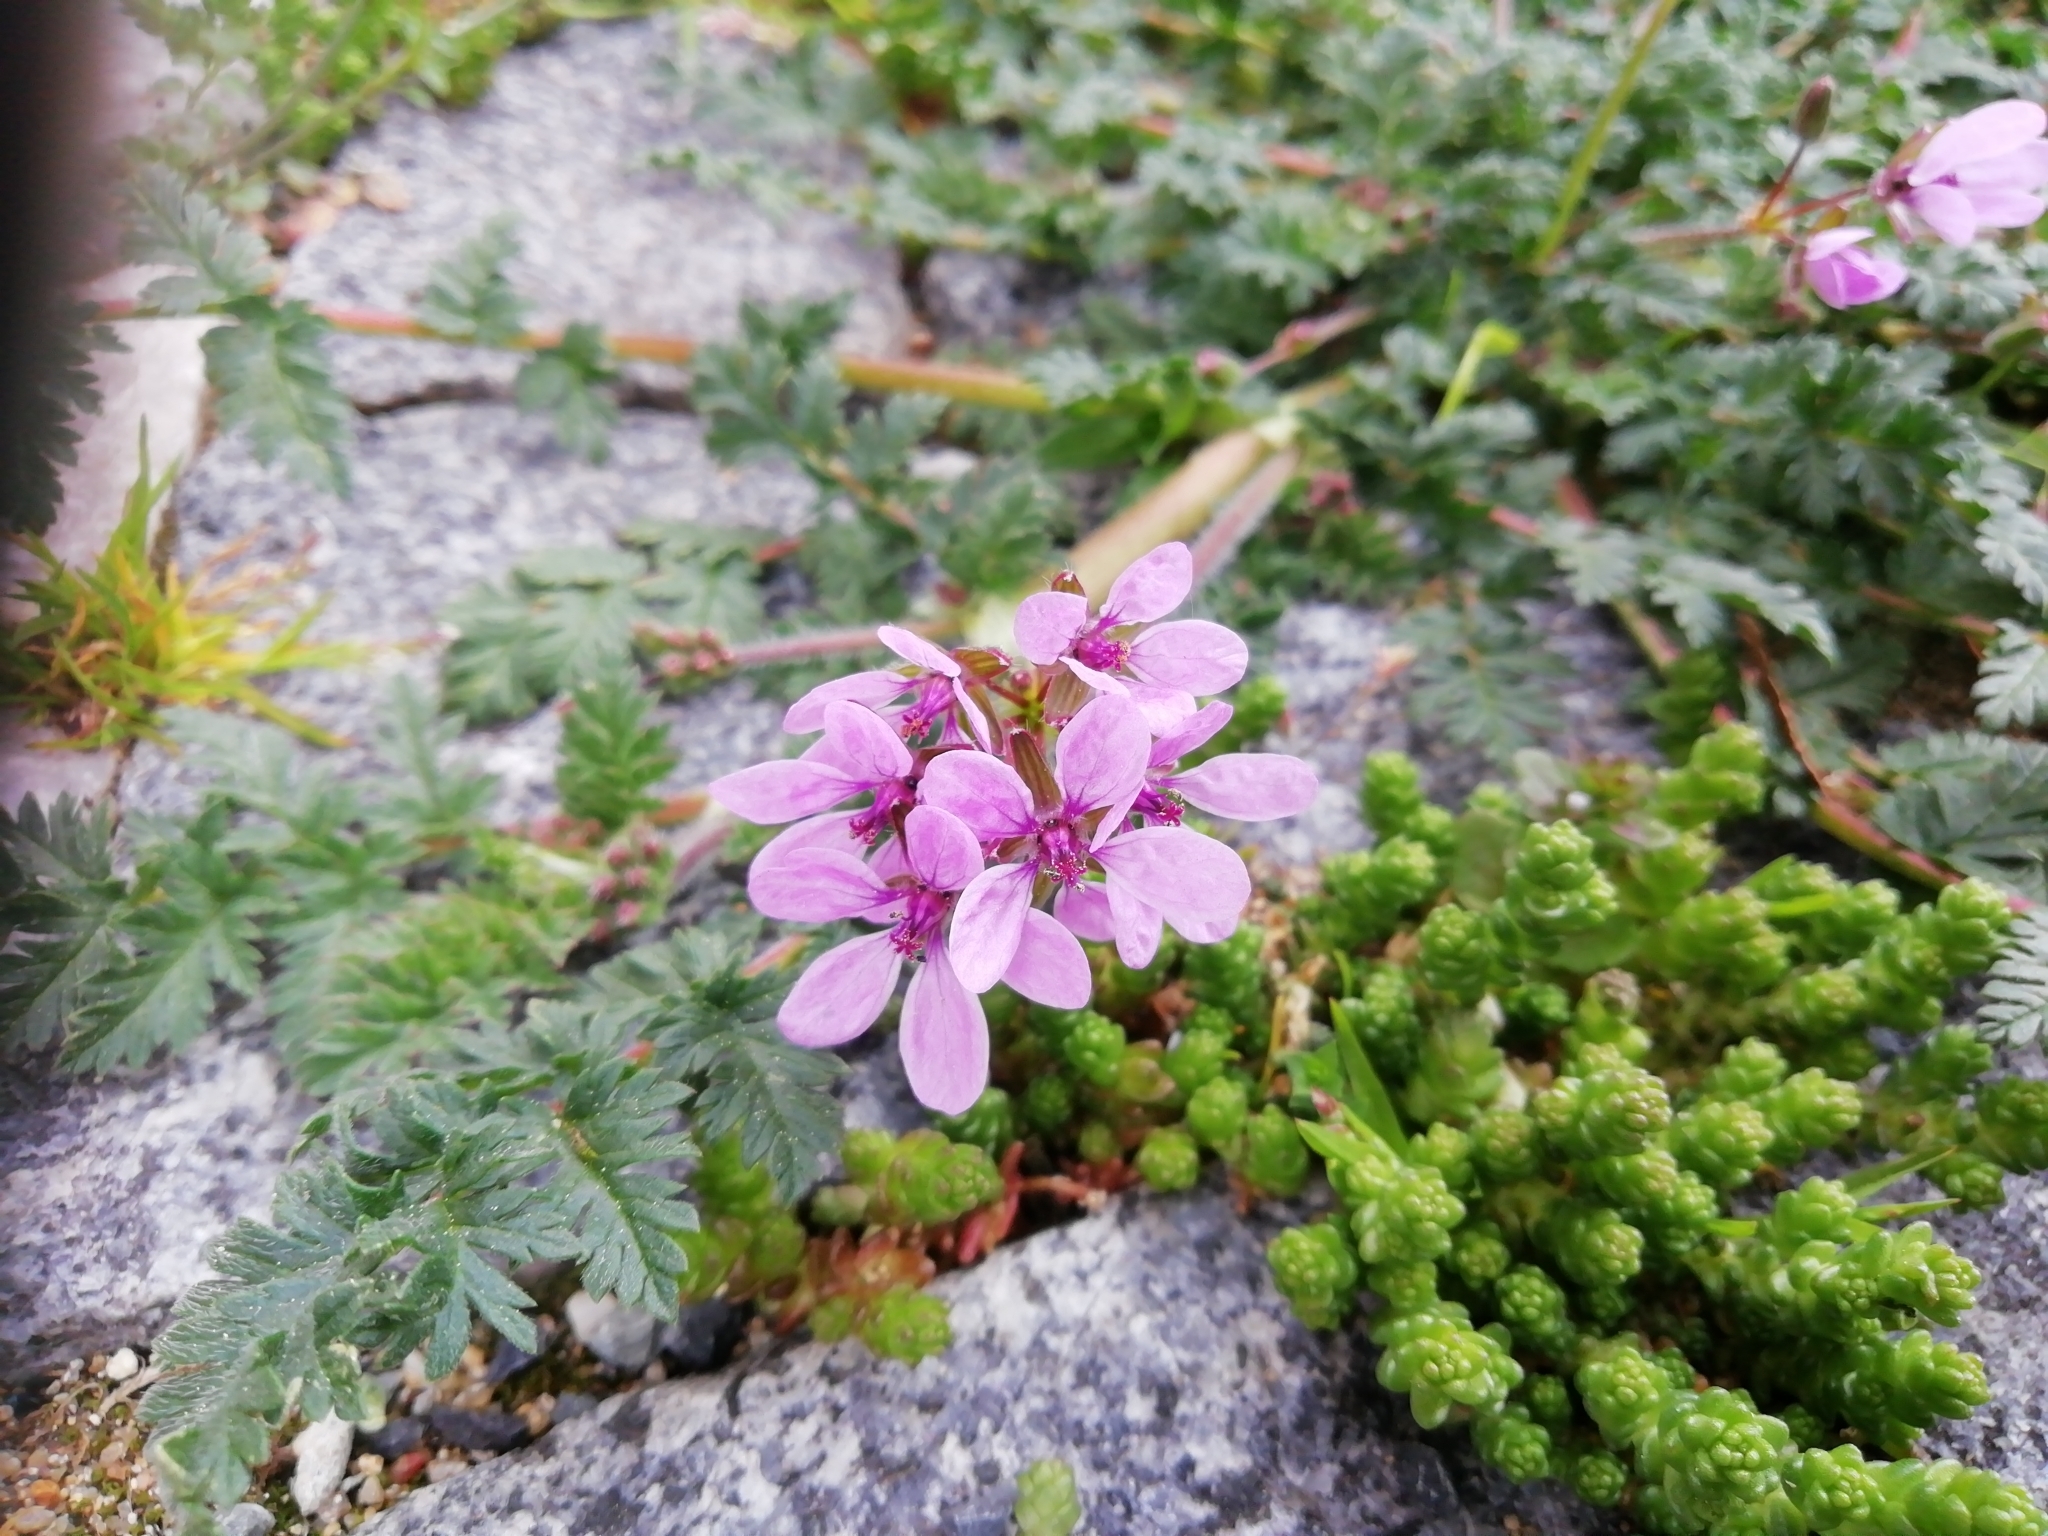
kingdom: Plantae
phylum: Tracheophyta
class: Magnoliopsida
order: Geraniales
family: Geraniaceae
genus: Erodium
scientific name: Erodium cicutarium
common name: Common stork's-bill
